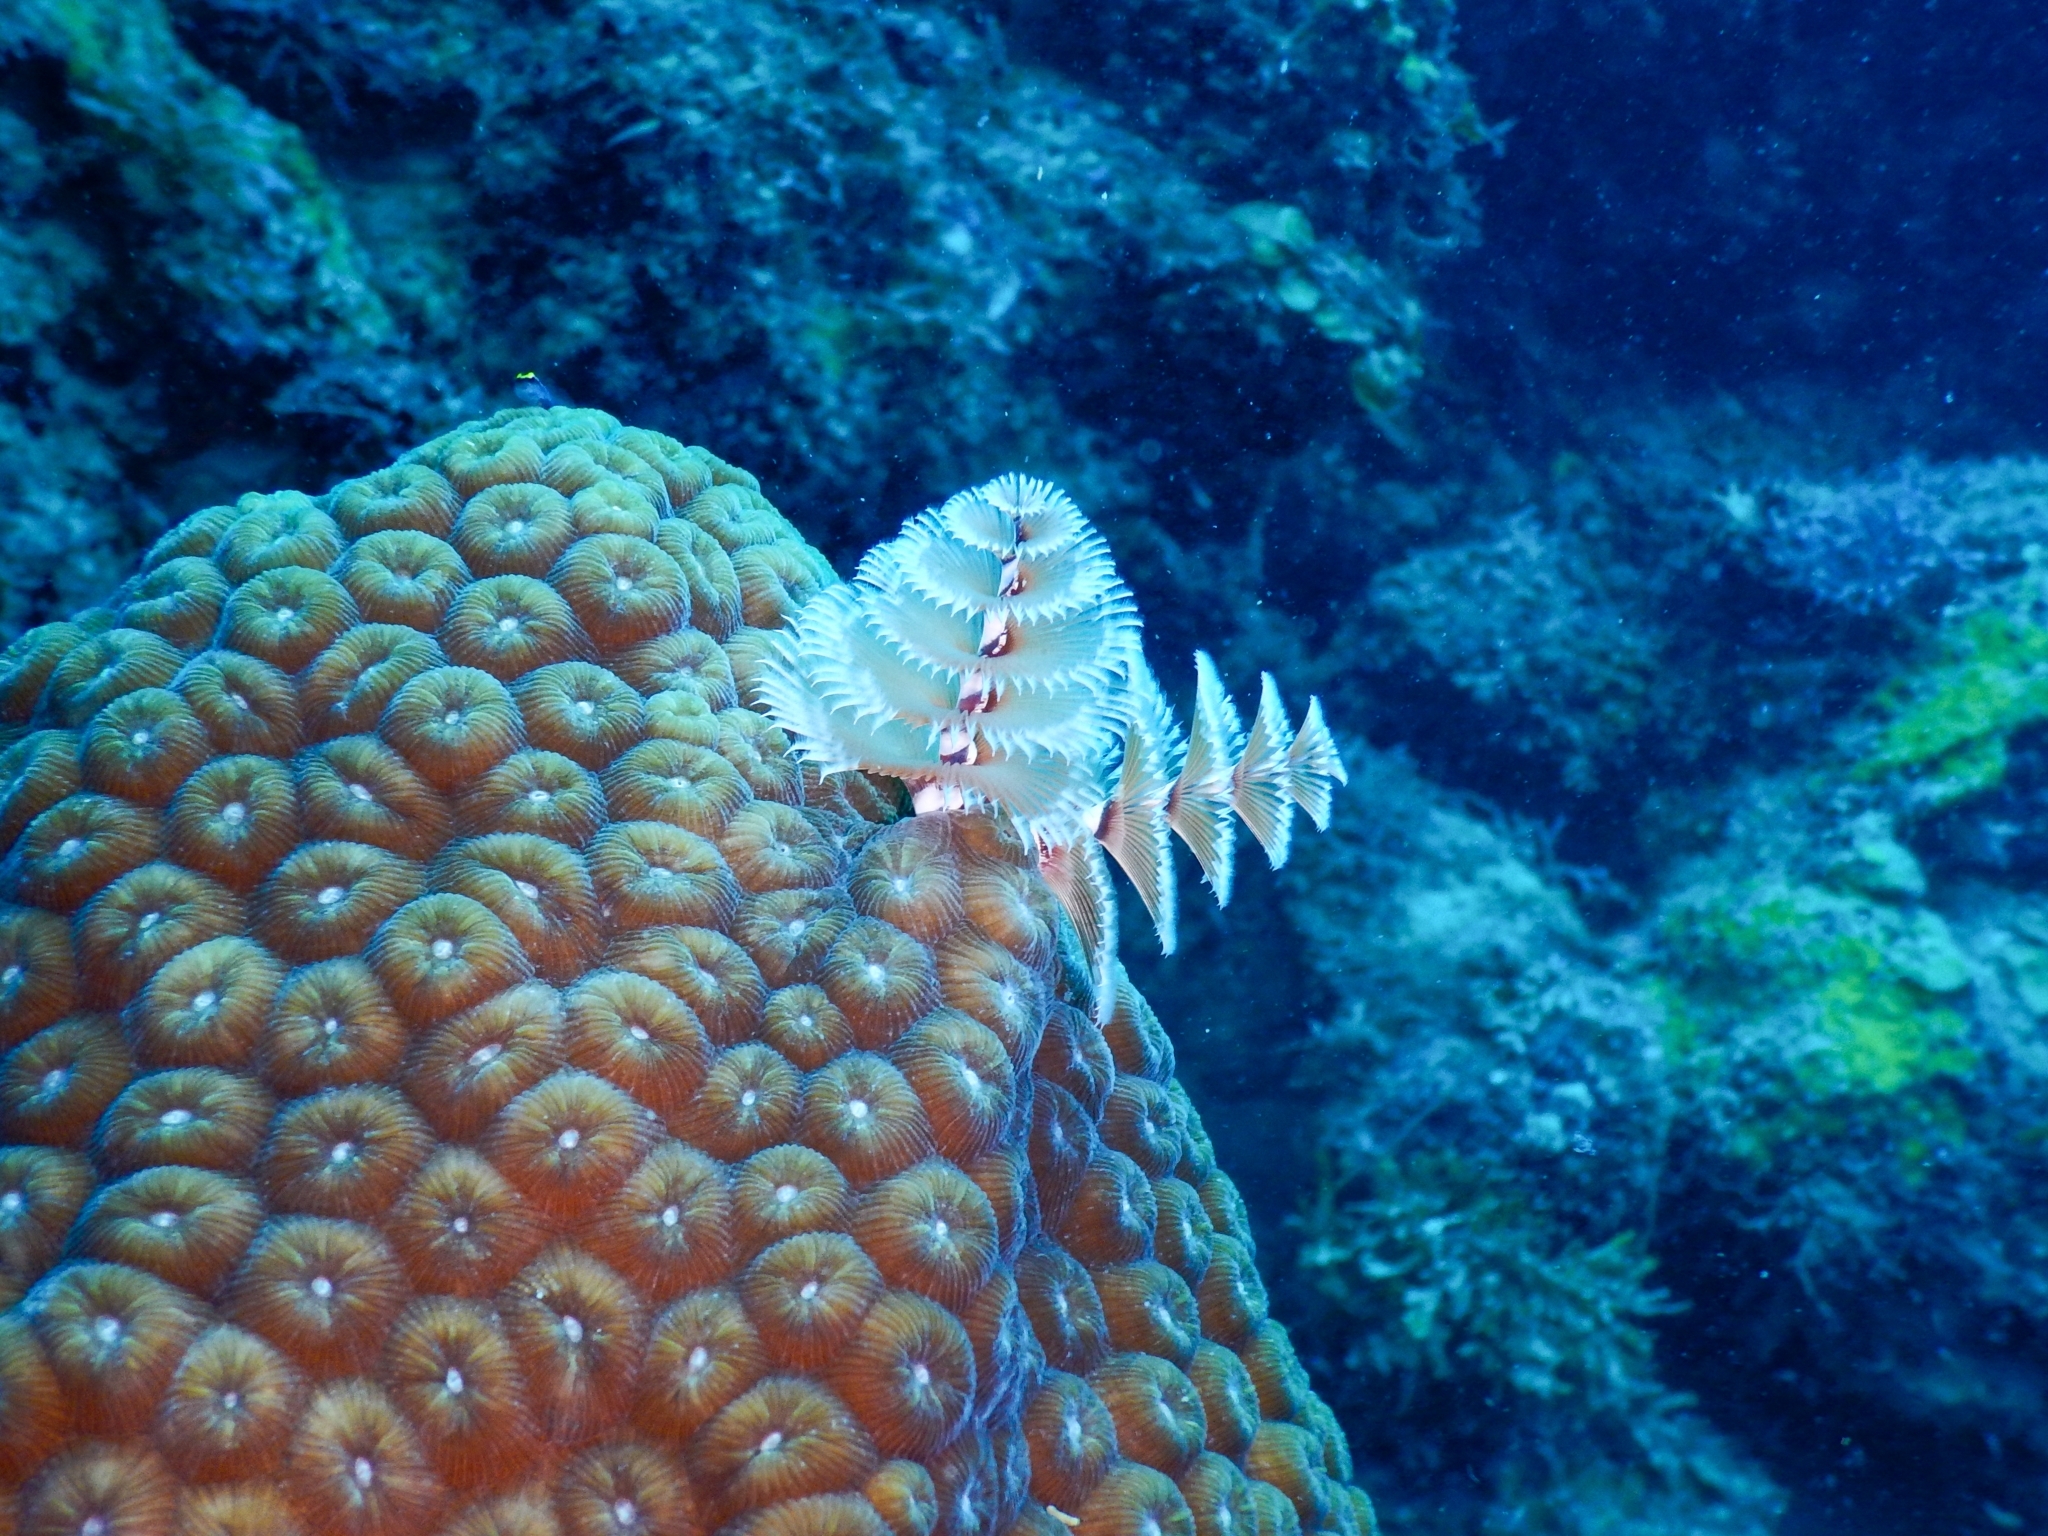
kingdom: Animalia
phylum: Annelida
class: Polychaeta
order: Sabellida
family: Serpulidae
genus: Spirobranchus
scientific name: Spirobranchus giganteus
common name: Christmas tree worm
